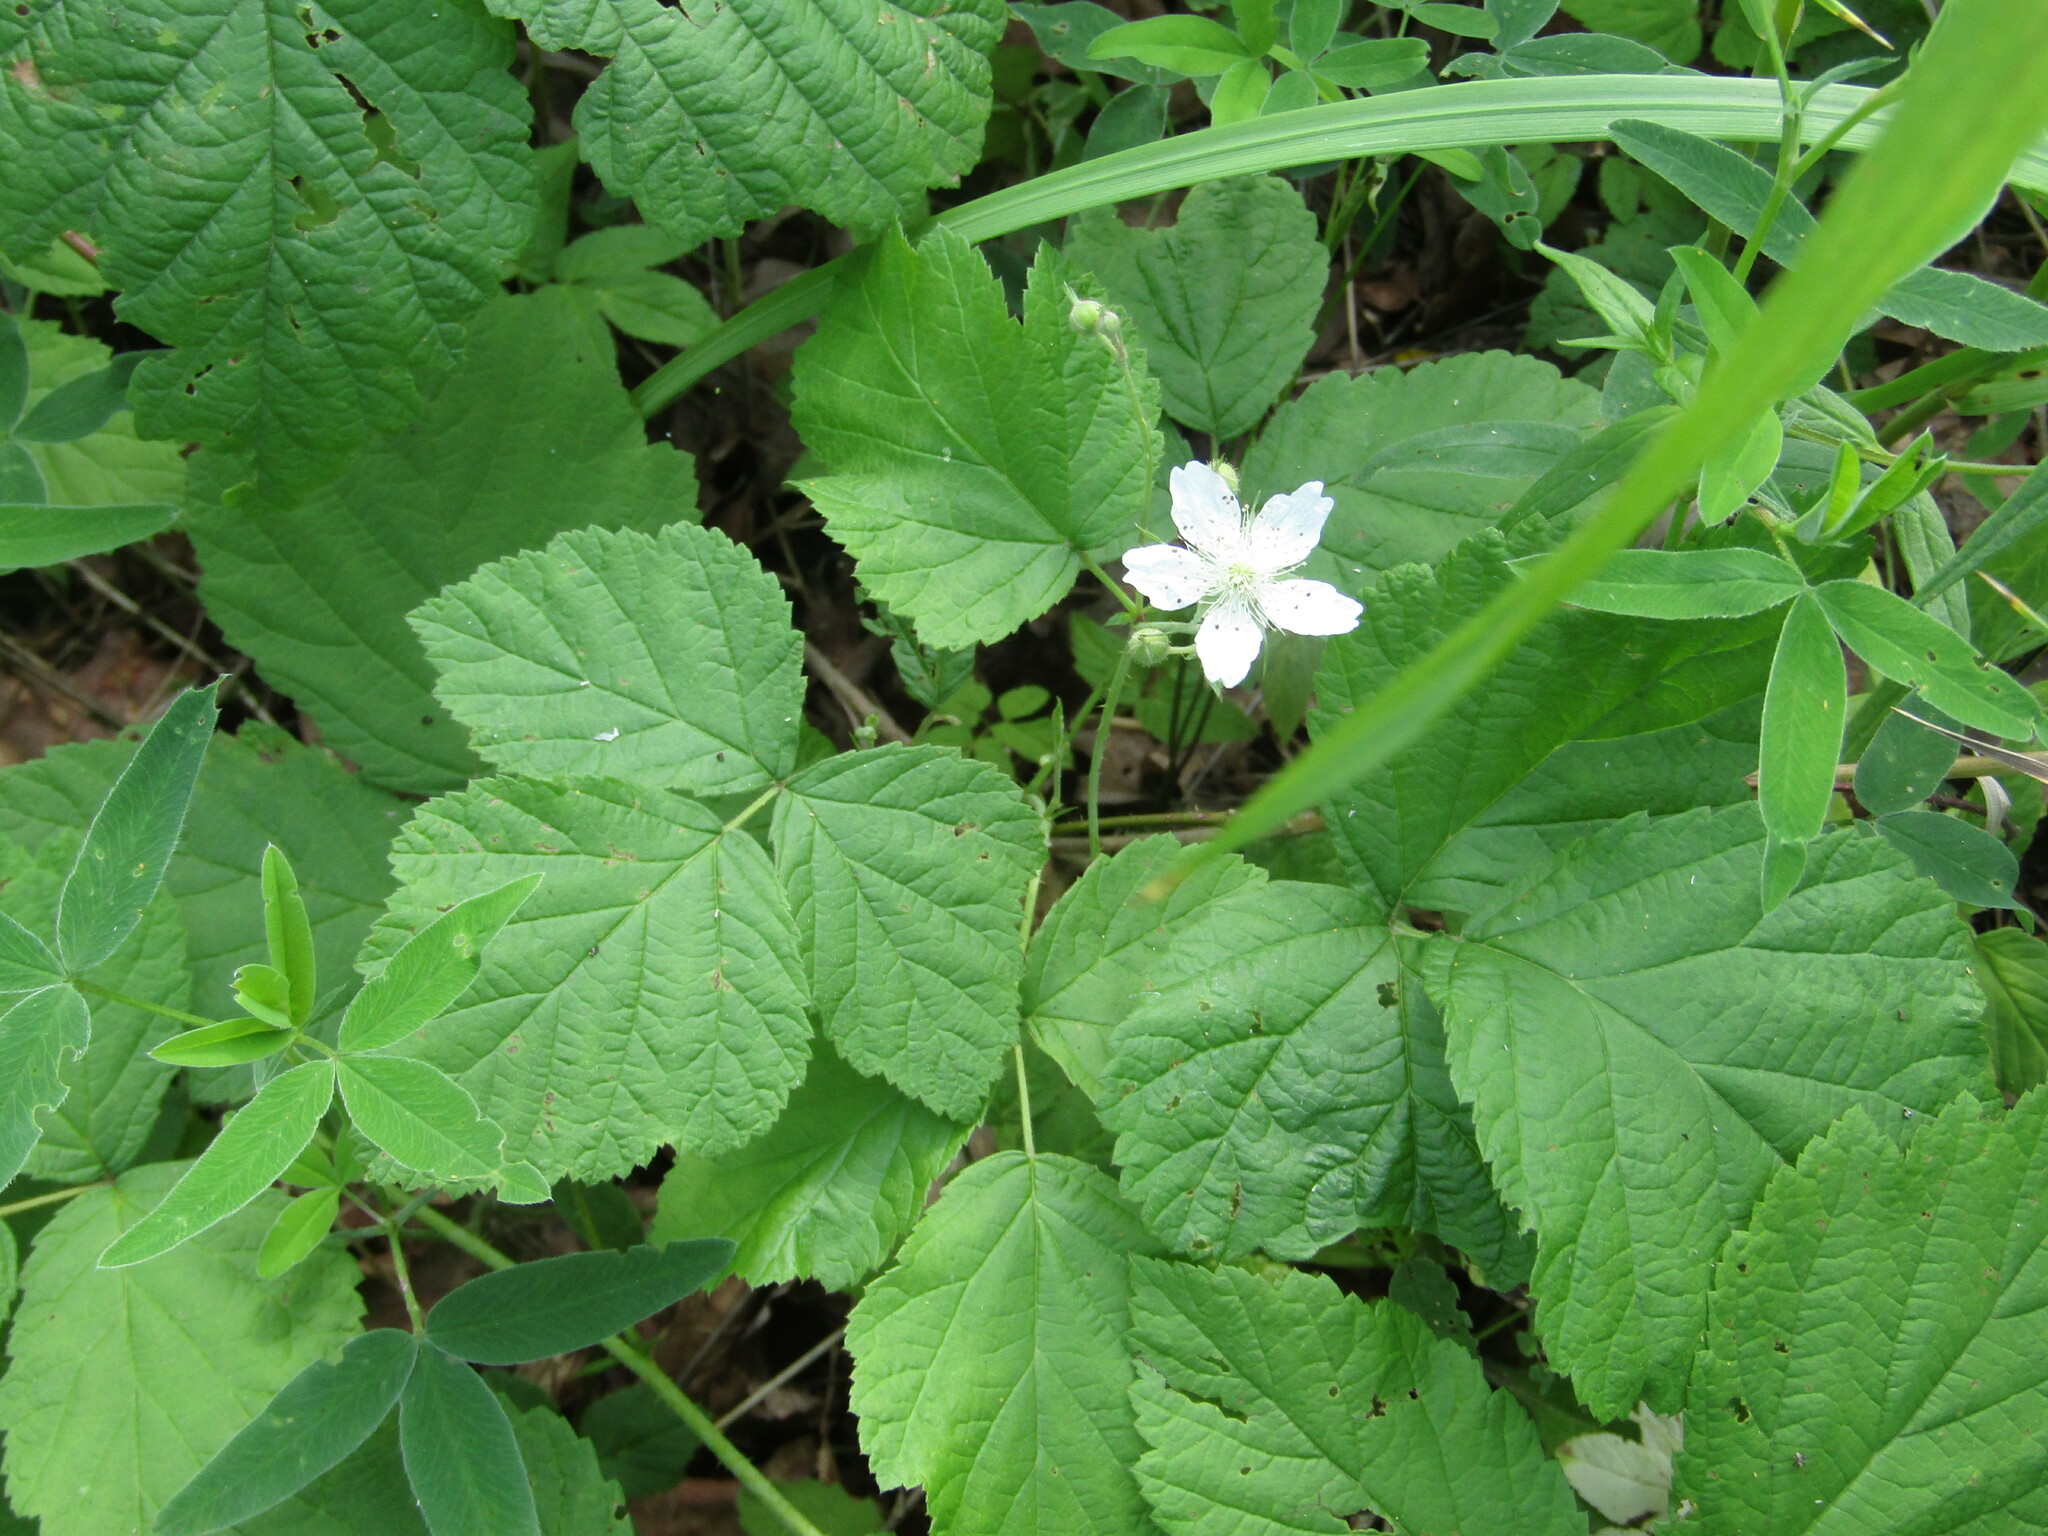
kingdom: Plantae
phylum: Tracheophyta
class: Magnoliopsida
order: Rosales
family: Rosaceae
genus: Rubus
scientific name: Rubus caesius
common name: Dewberry
